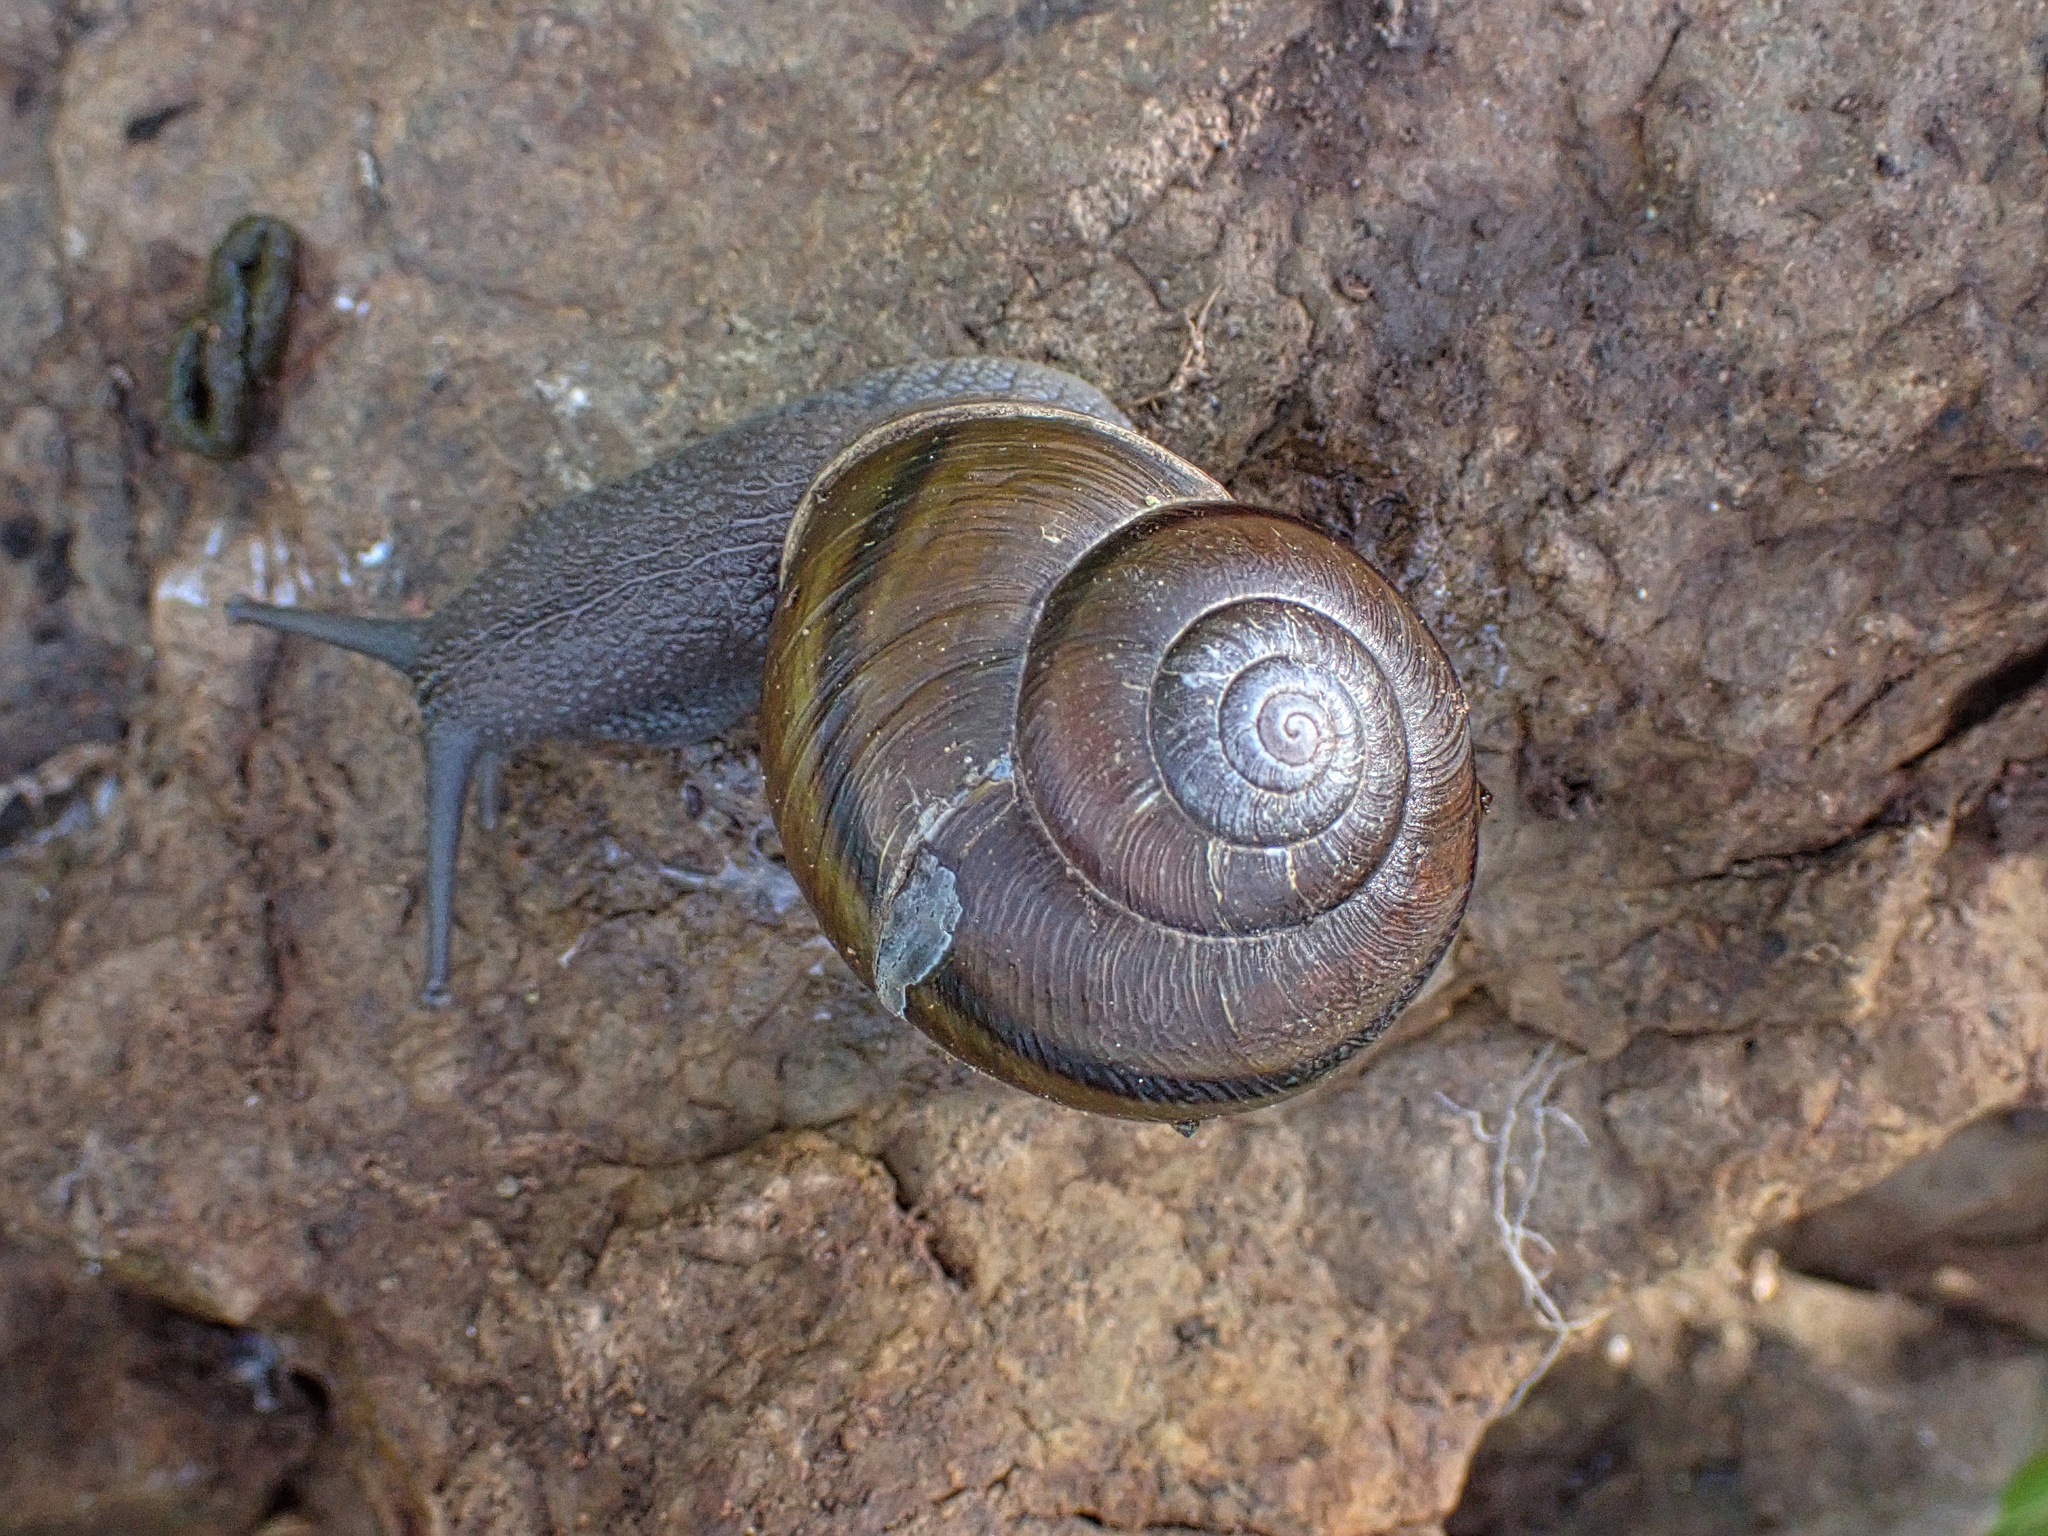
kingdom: Animalia
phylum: Mollusca
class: Gastropoda
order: Stylommatophora
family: Xanthonychidae
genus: Helminthoglypta
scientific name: Helminthoglypta tudiculata
